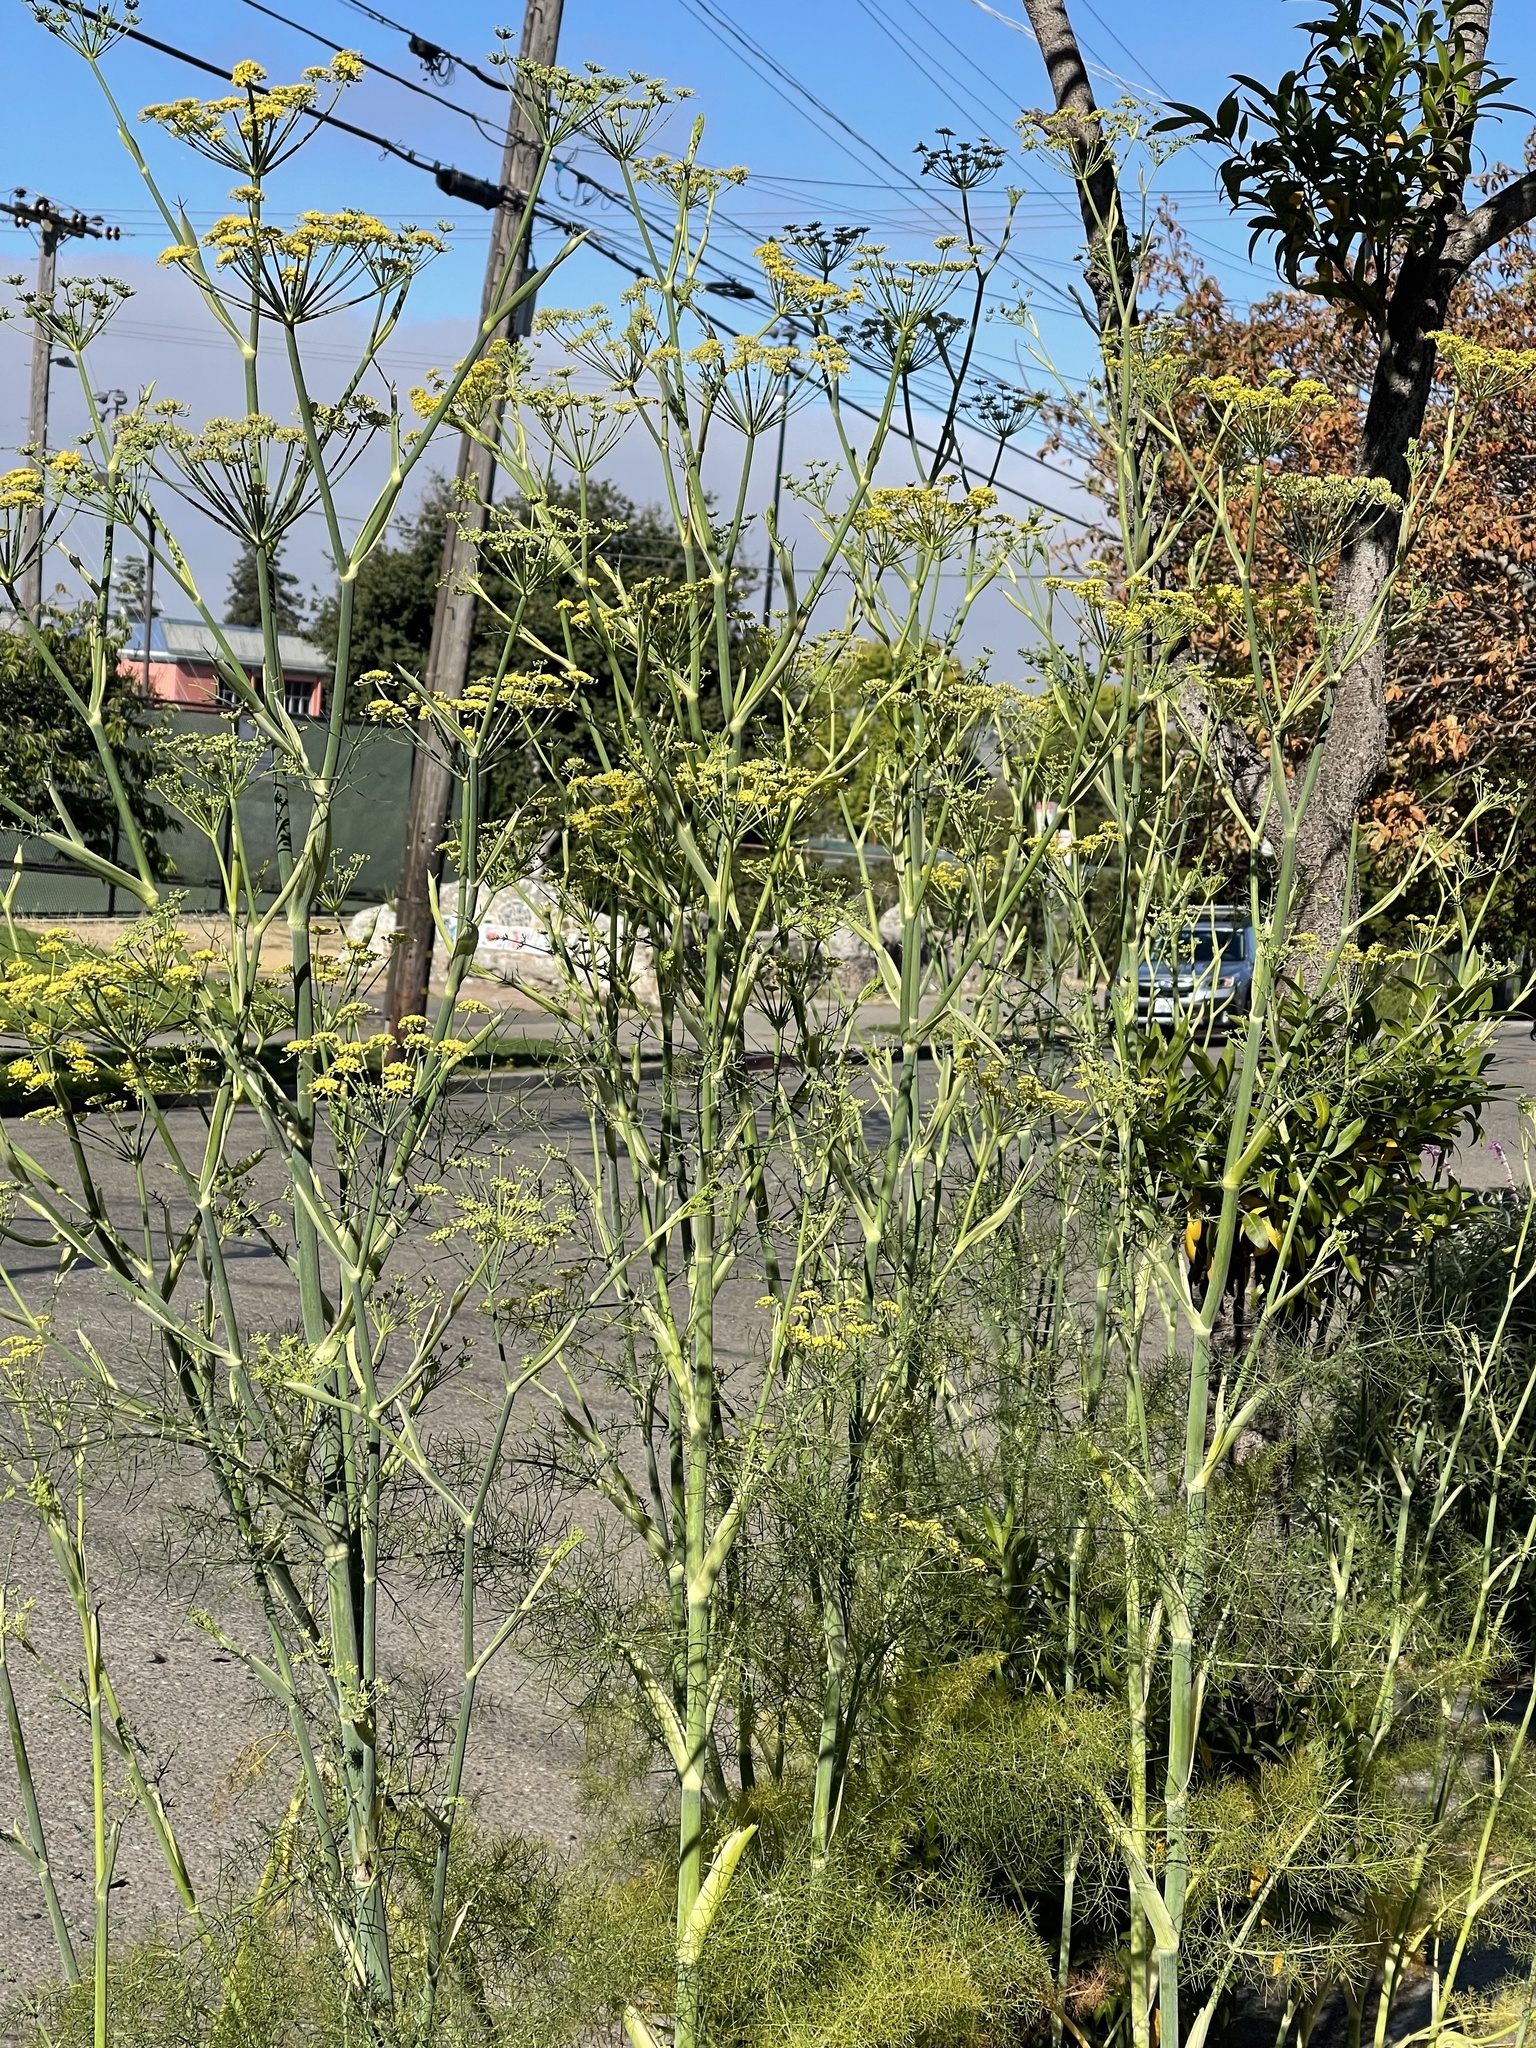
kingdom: Plantae
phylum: Tracheophyta
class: Magnoliopsida
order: Apiales
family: Apiaceae
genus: Foeniculum
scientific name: Foeniculum vulgare
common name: Fennel
